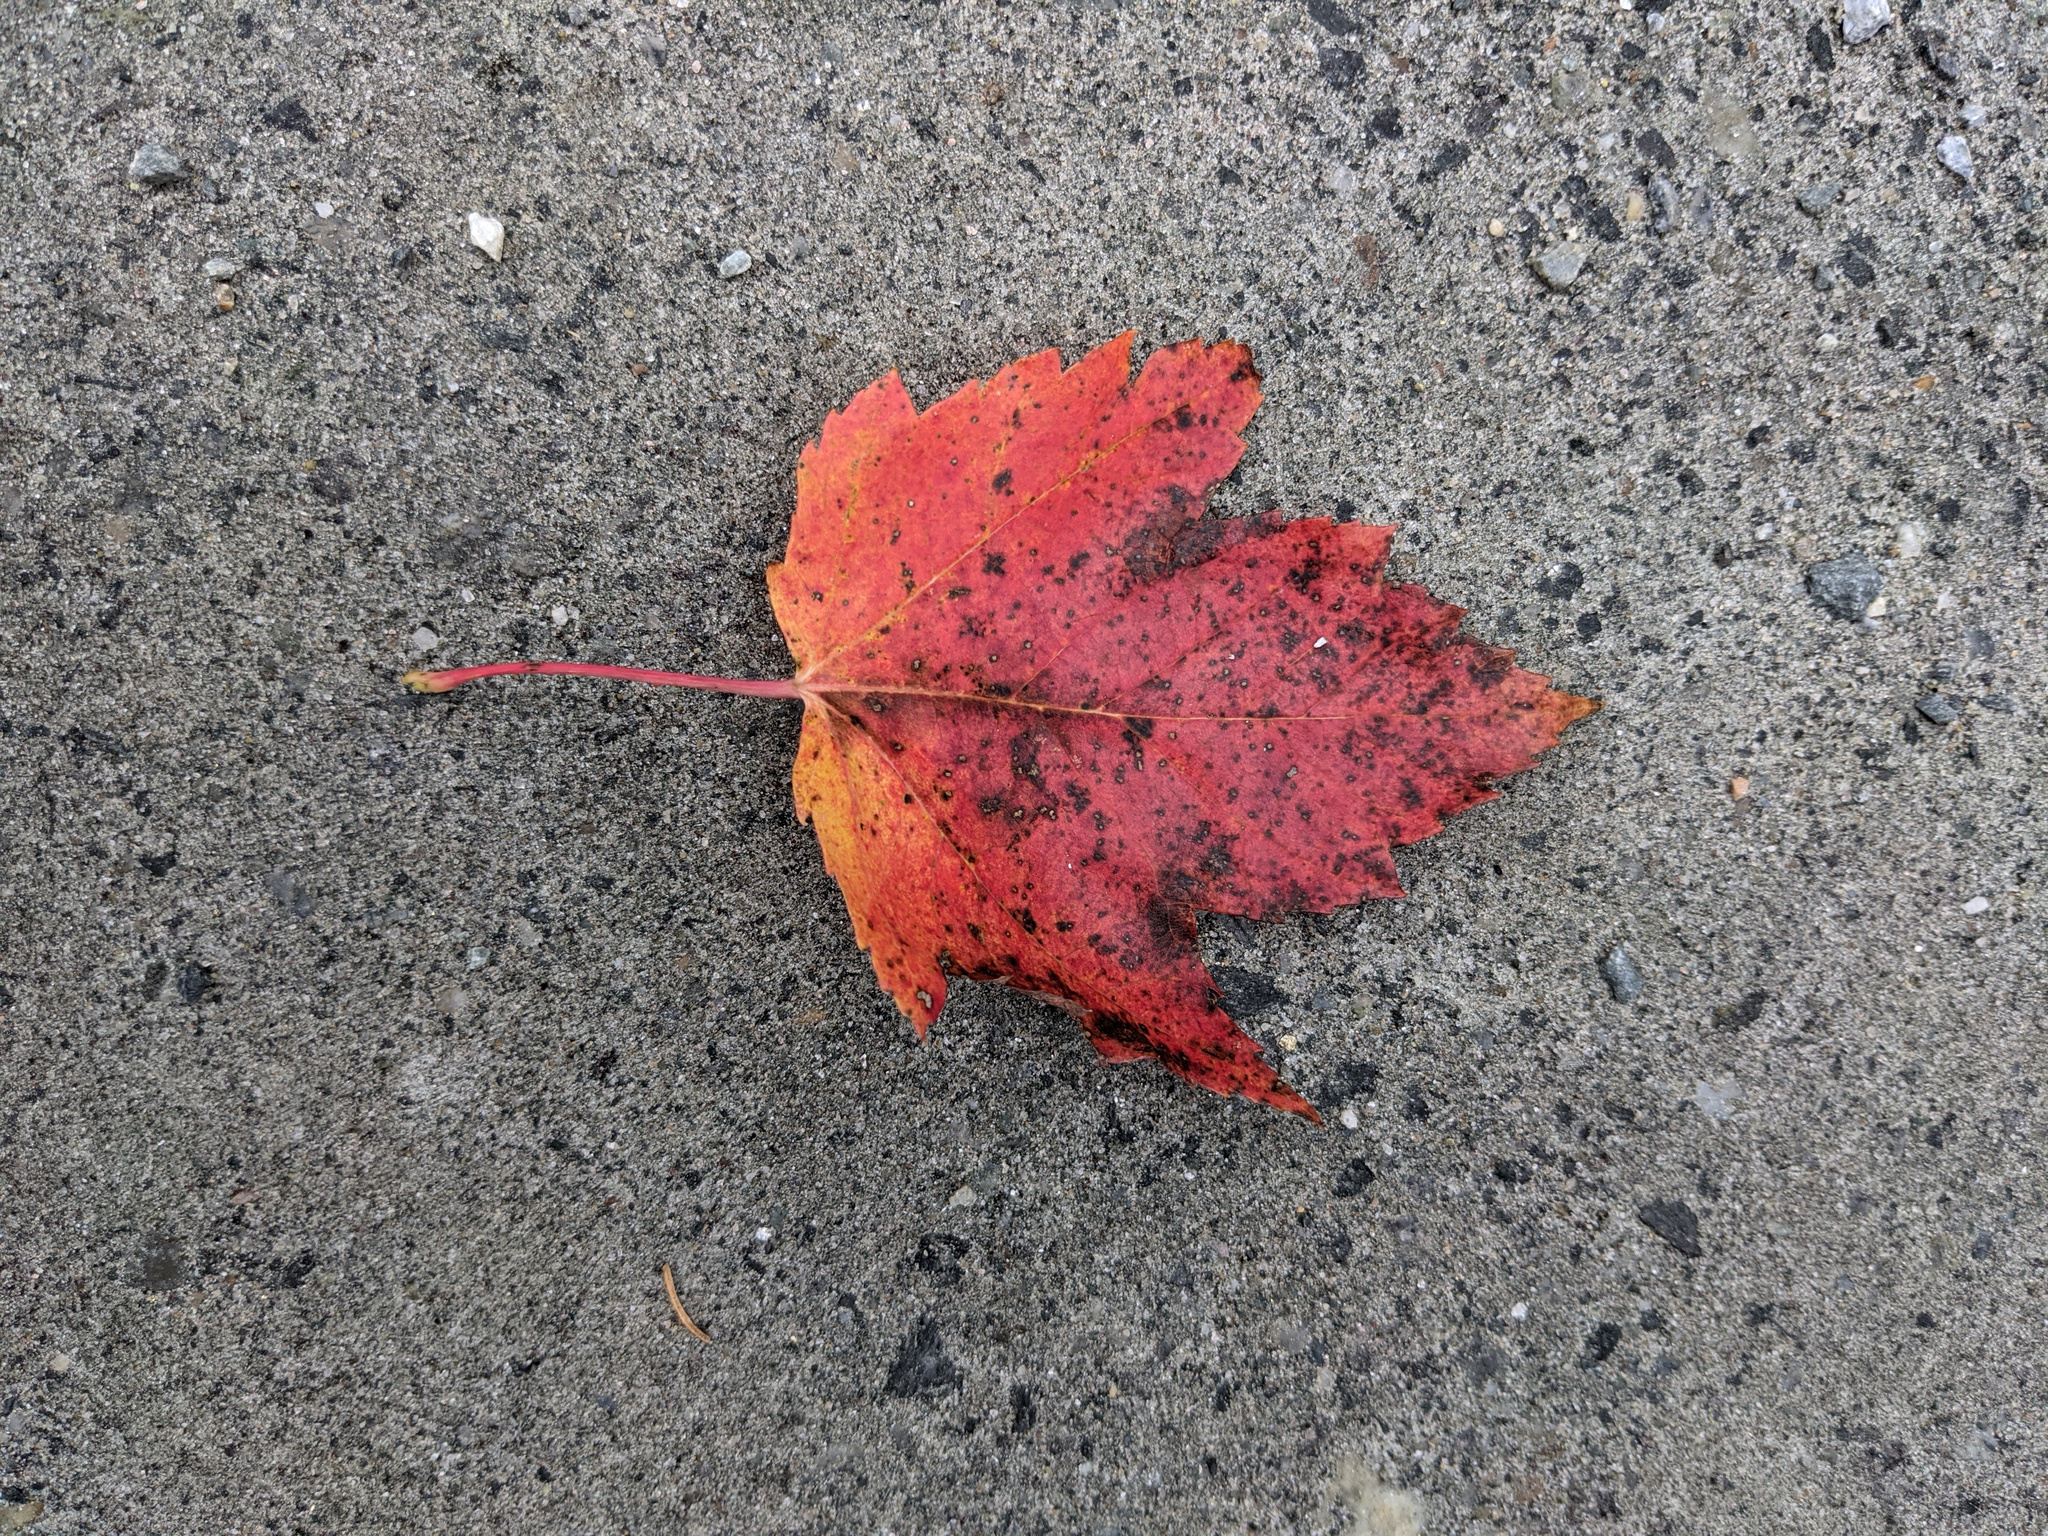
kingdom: Plantae
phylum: Tracheophyta
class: Magnoliopsida
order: Sapindales
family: Sapindaceae
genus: Acer
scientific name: Acer rubrum
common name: Red maple
